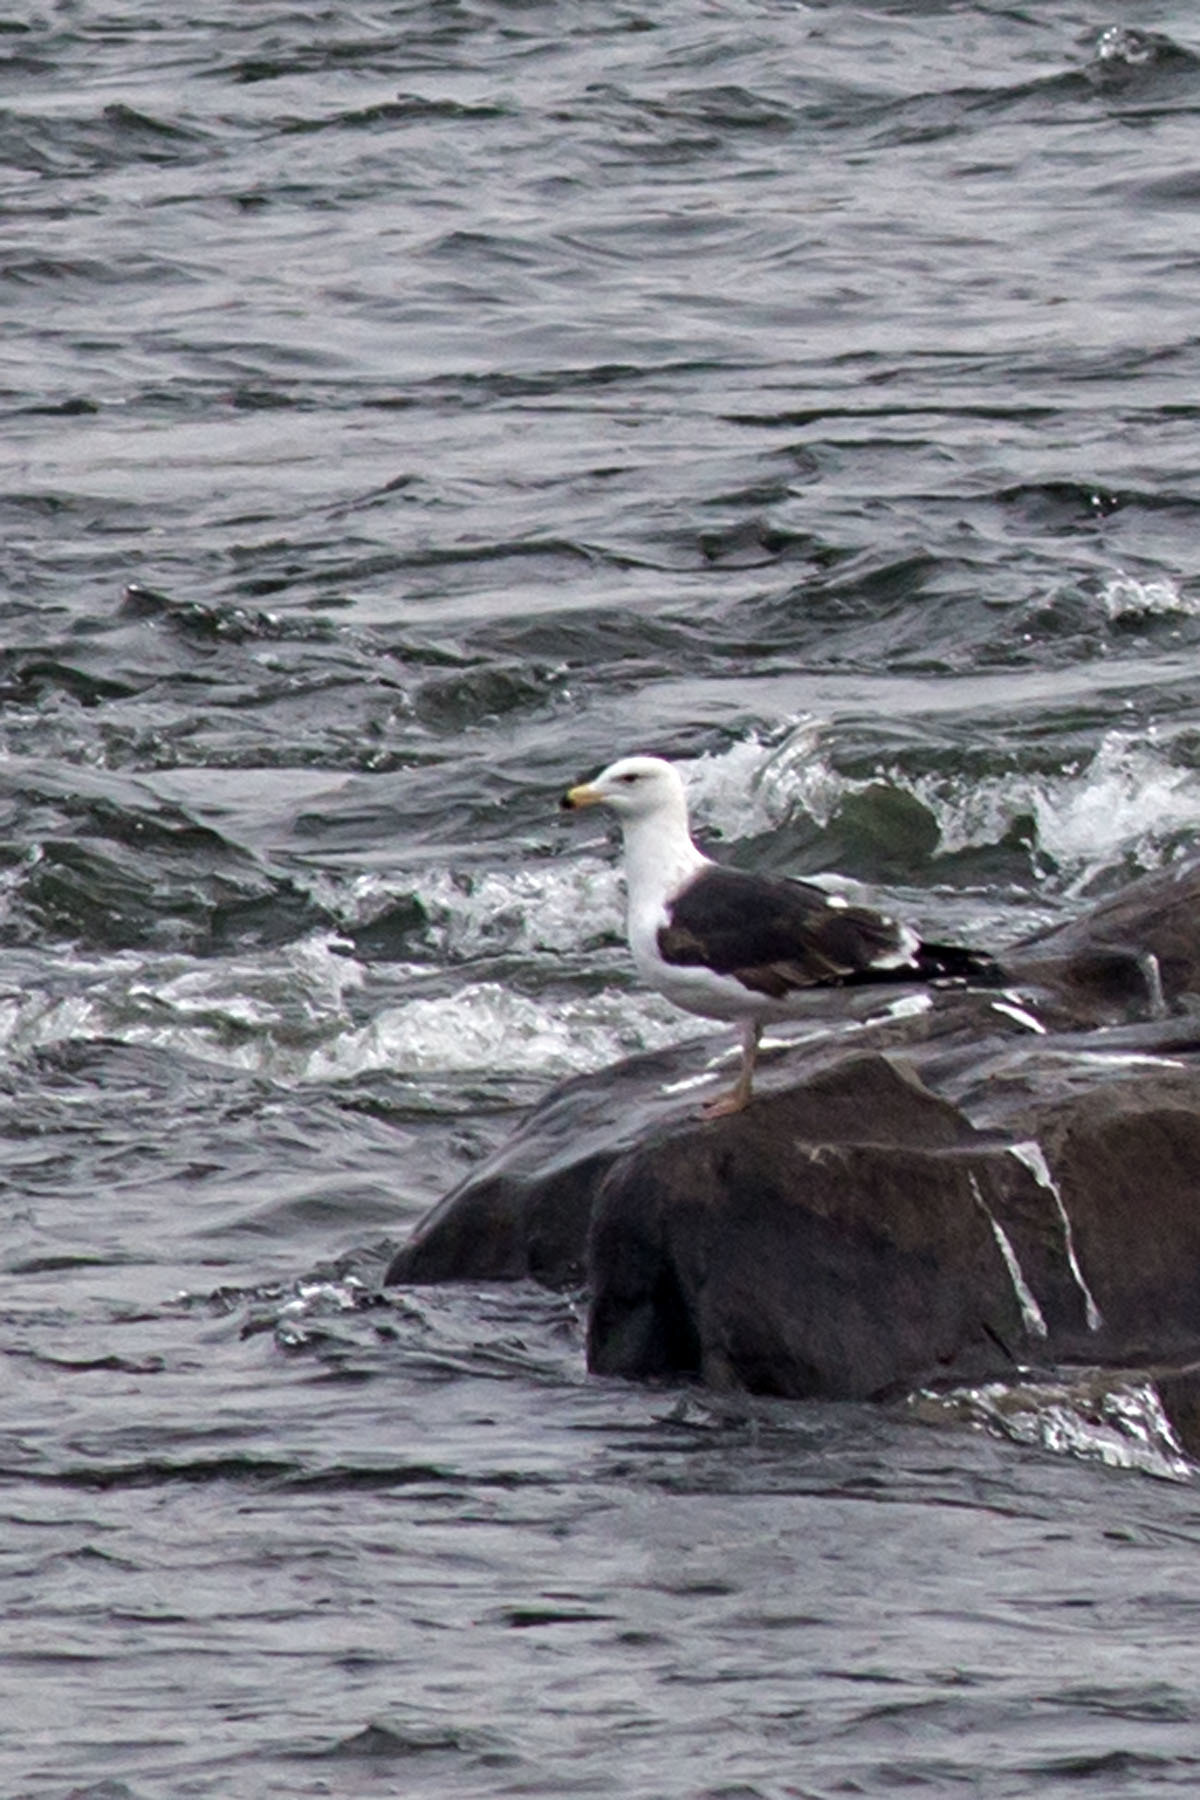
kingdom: Animalia
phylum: Chordata
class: Aves
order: Charadriiformes
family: Laridae
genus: Larus
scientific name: Larus marinus
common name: Great black-backed gull
